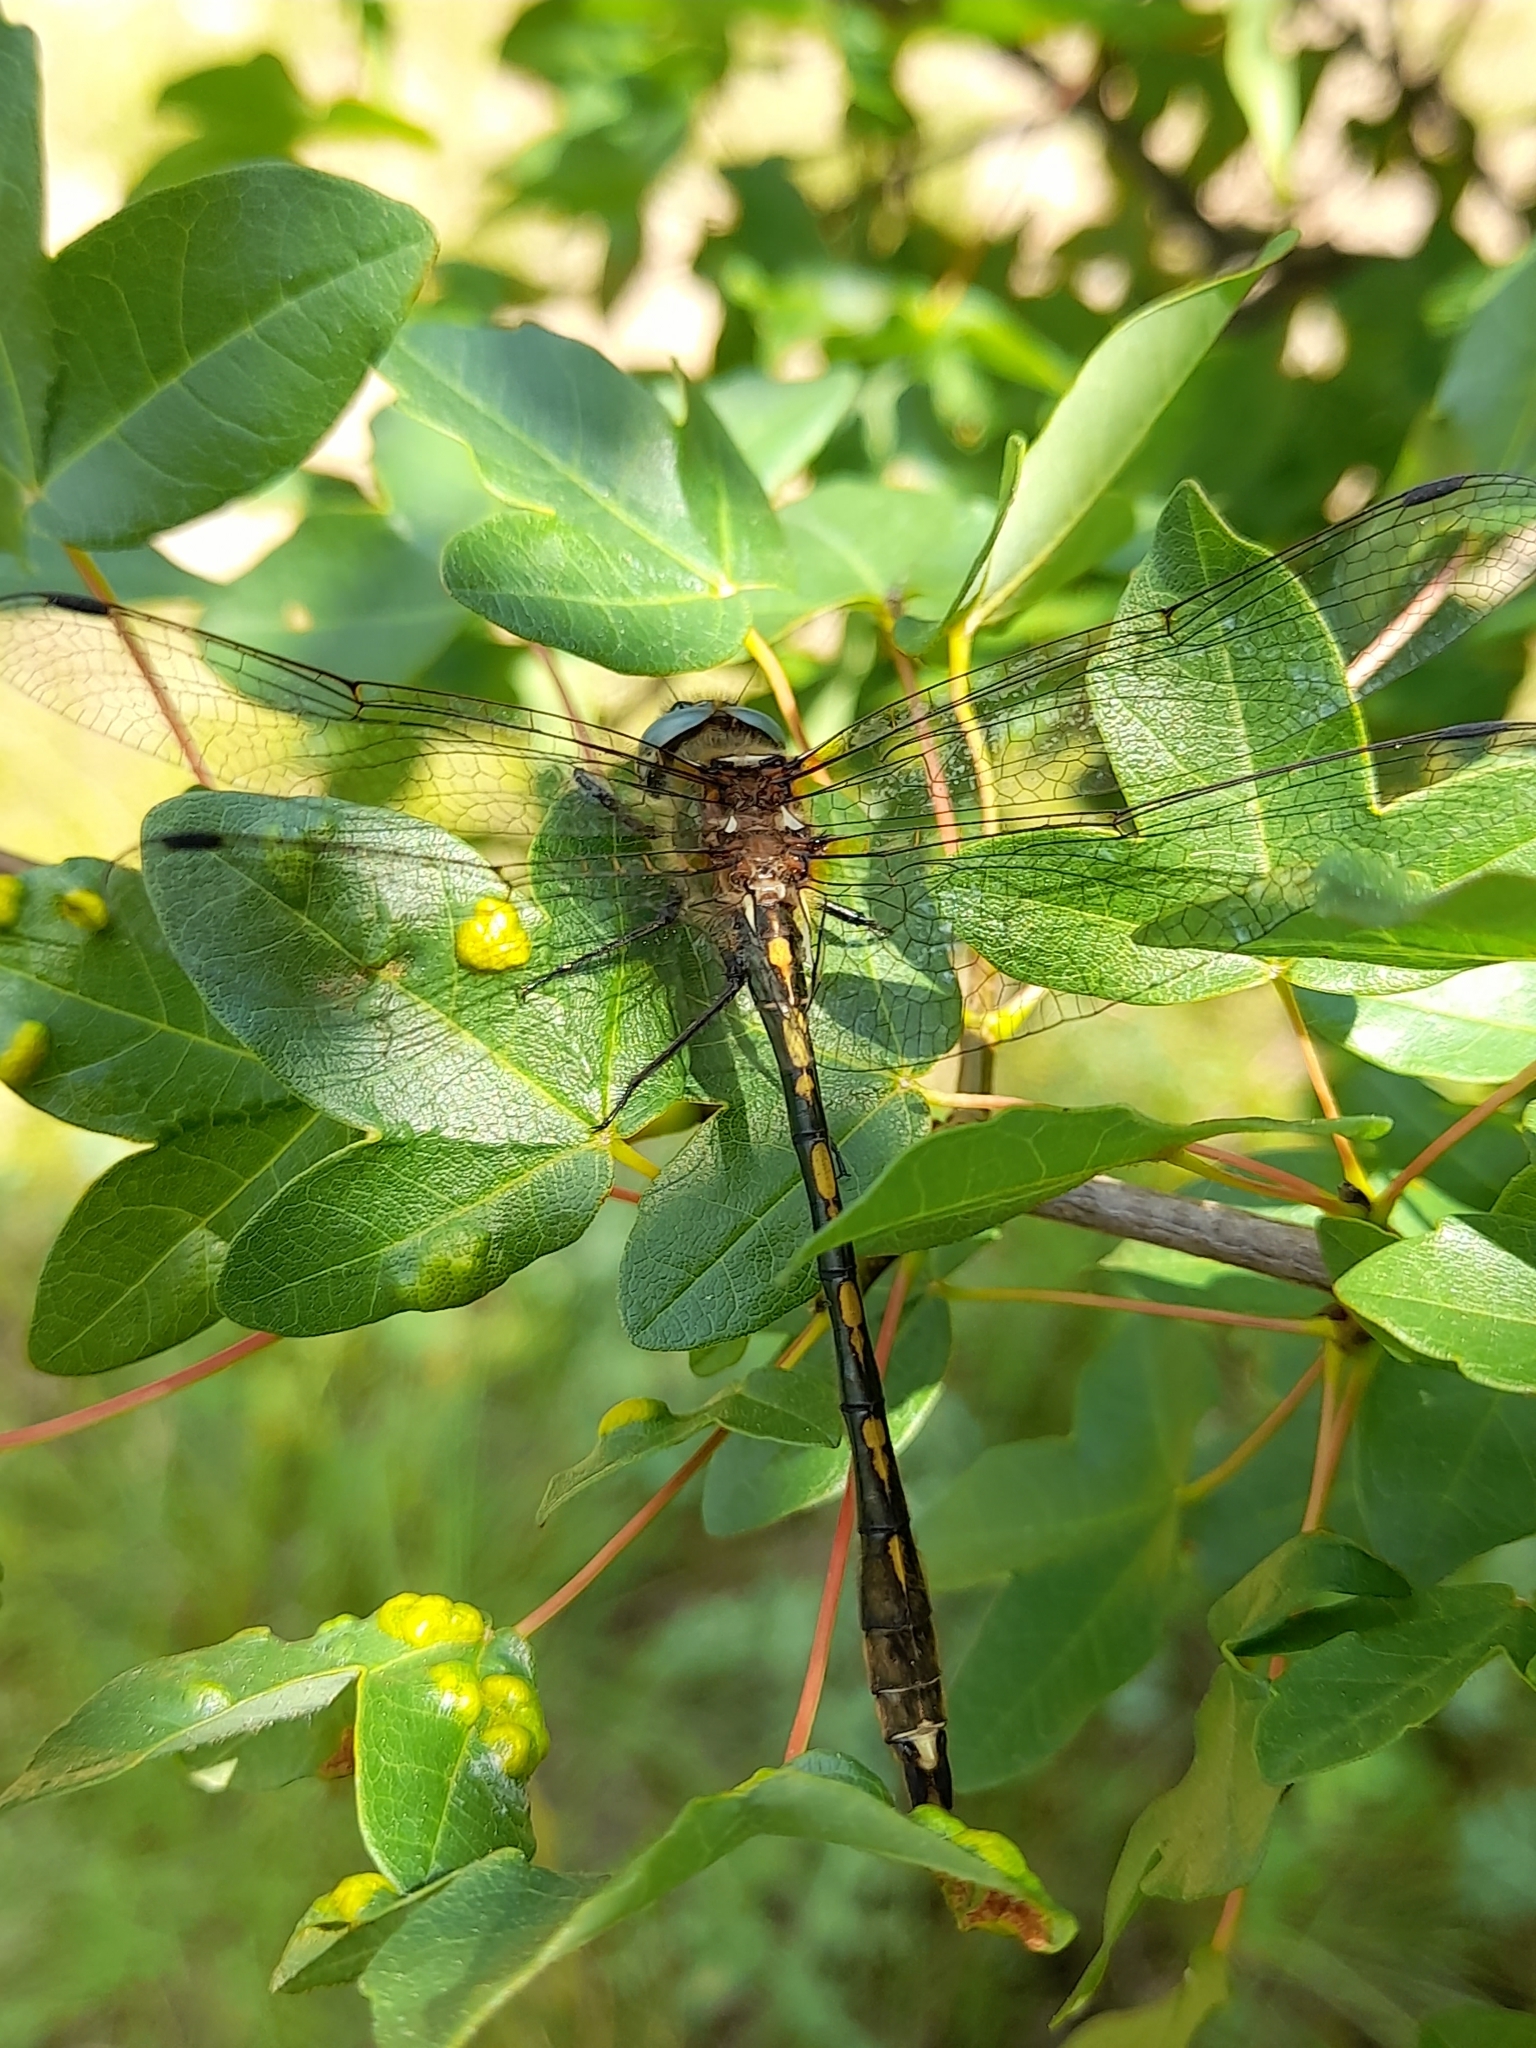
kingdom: Animalia
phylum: Arthropoda
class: Insecta
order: Odonata
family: Corduliidae
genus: Oxygastra
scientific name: Oxygastra curtisii
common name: Orange-spotted emerald
